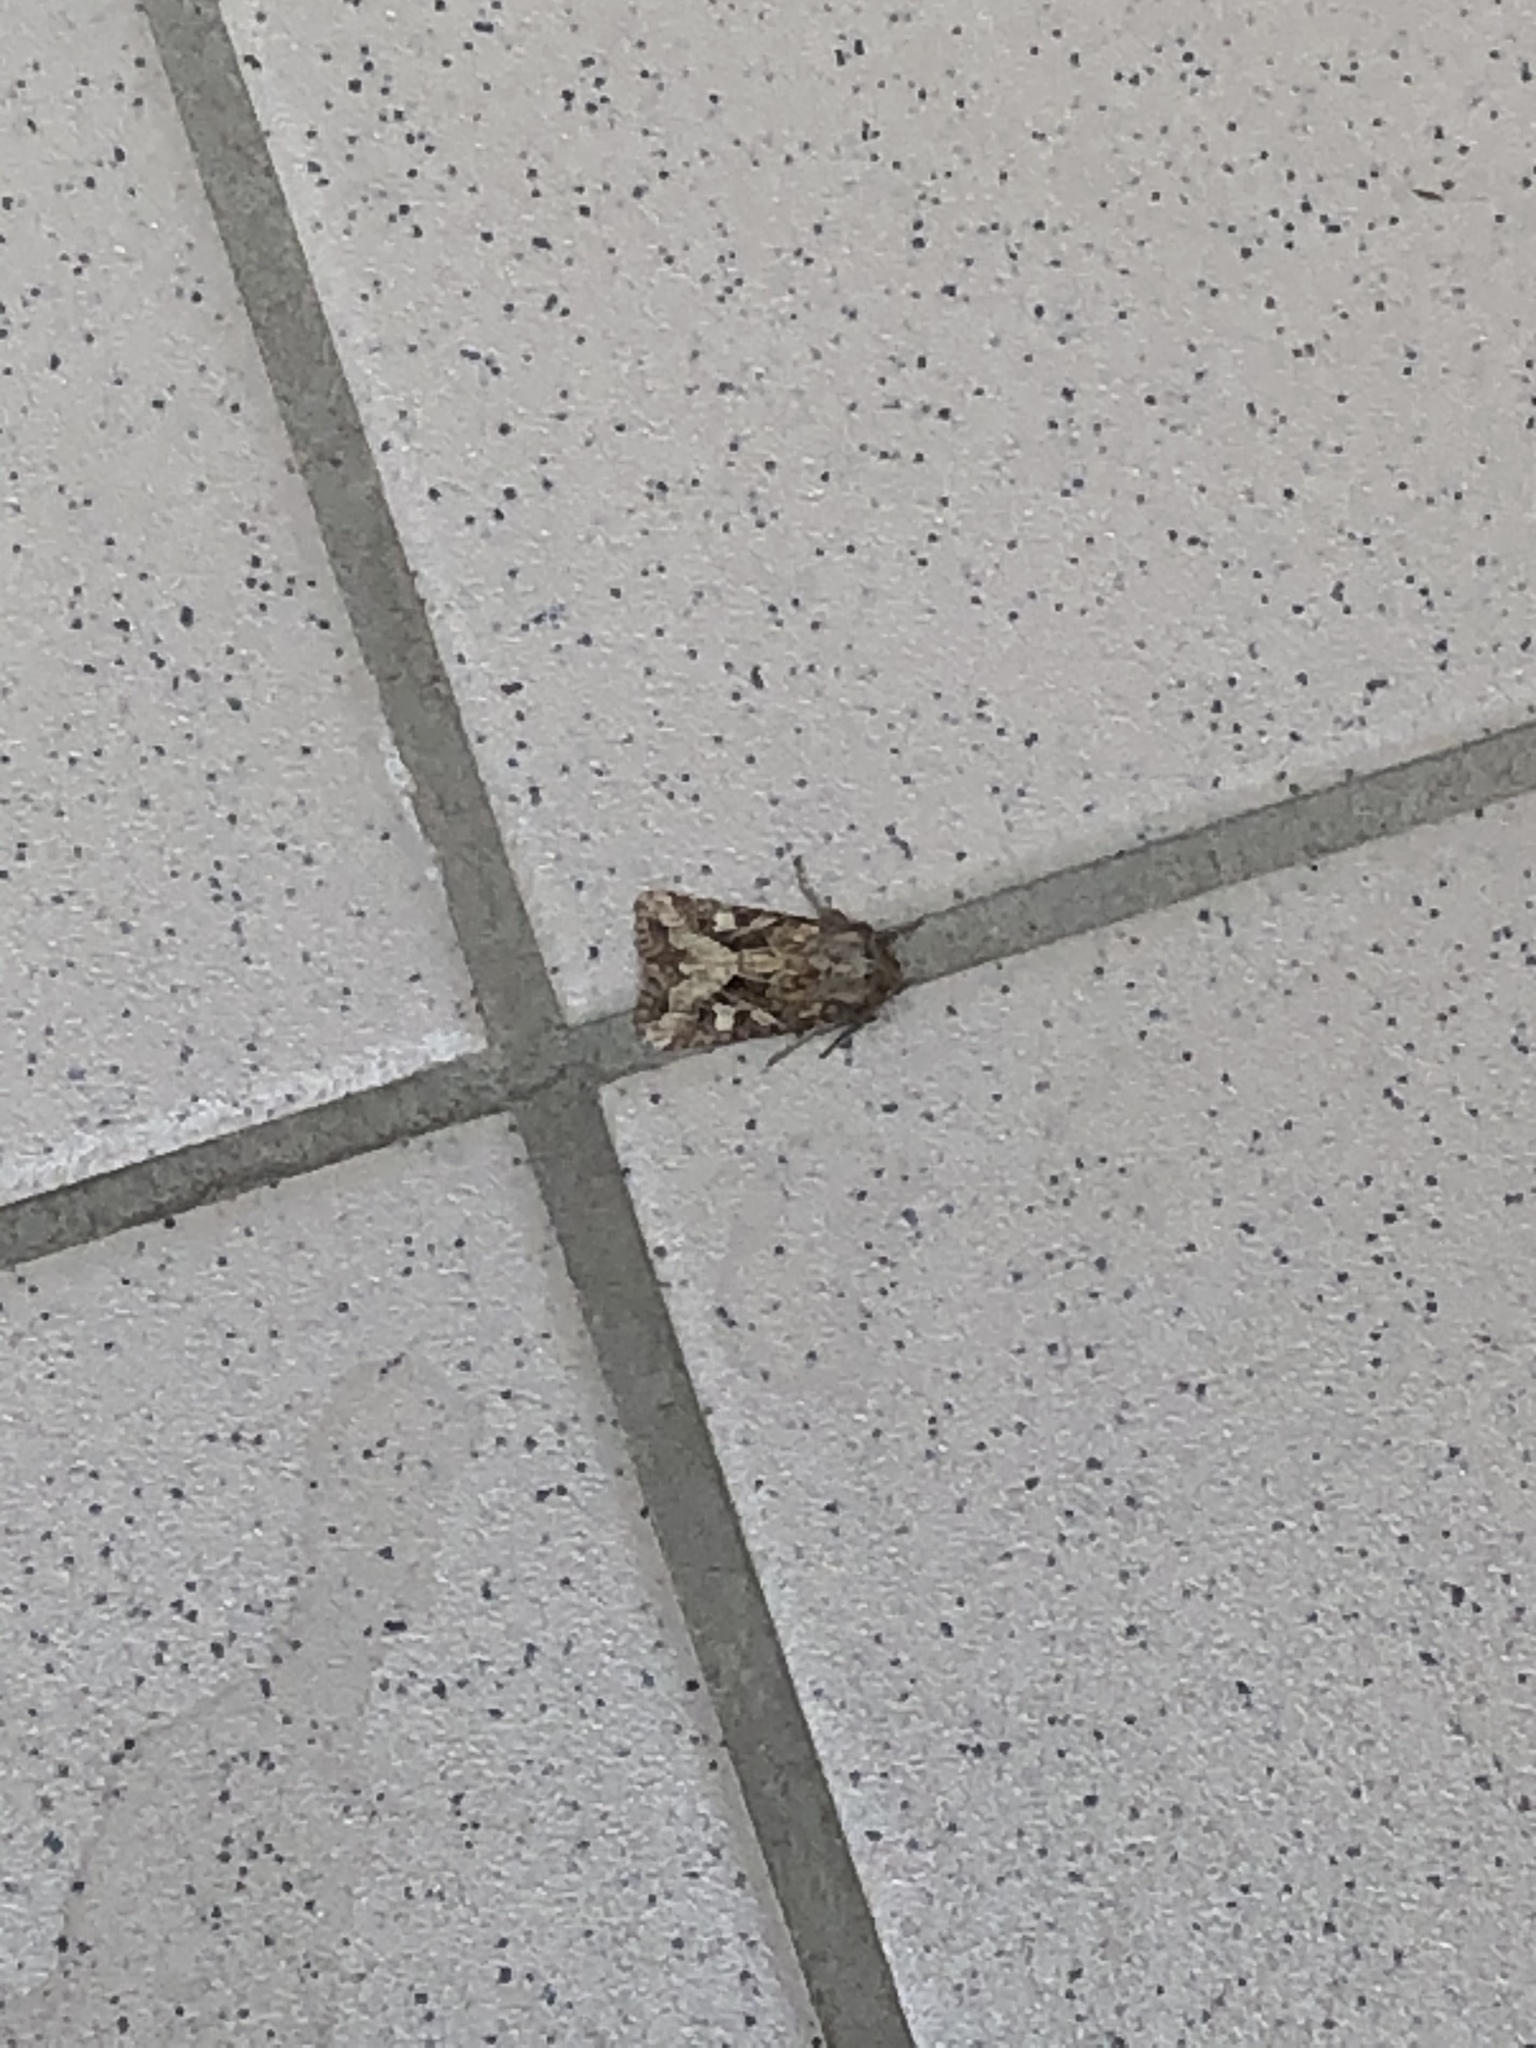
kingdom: Animalia
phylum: Arthropoda
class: Insecta
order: Lepidoptera
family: Noctuidae
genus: Luperina
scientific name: Luperina dumerilii
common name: Dumeril's rustic
